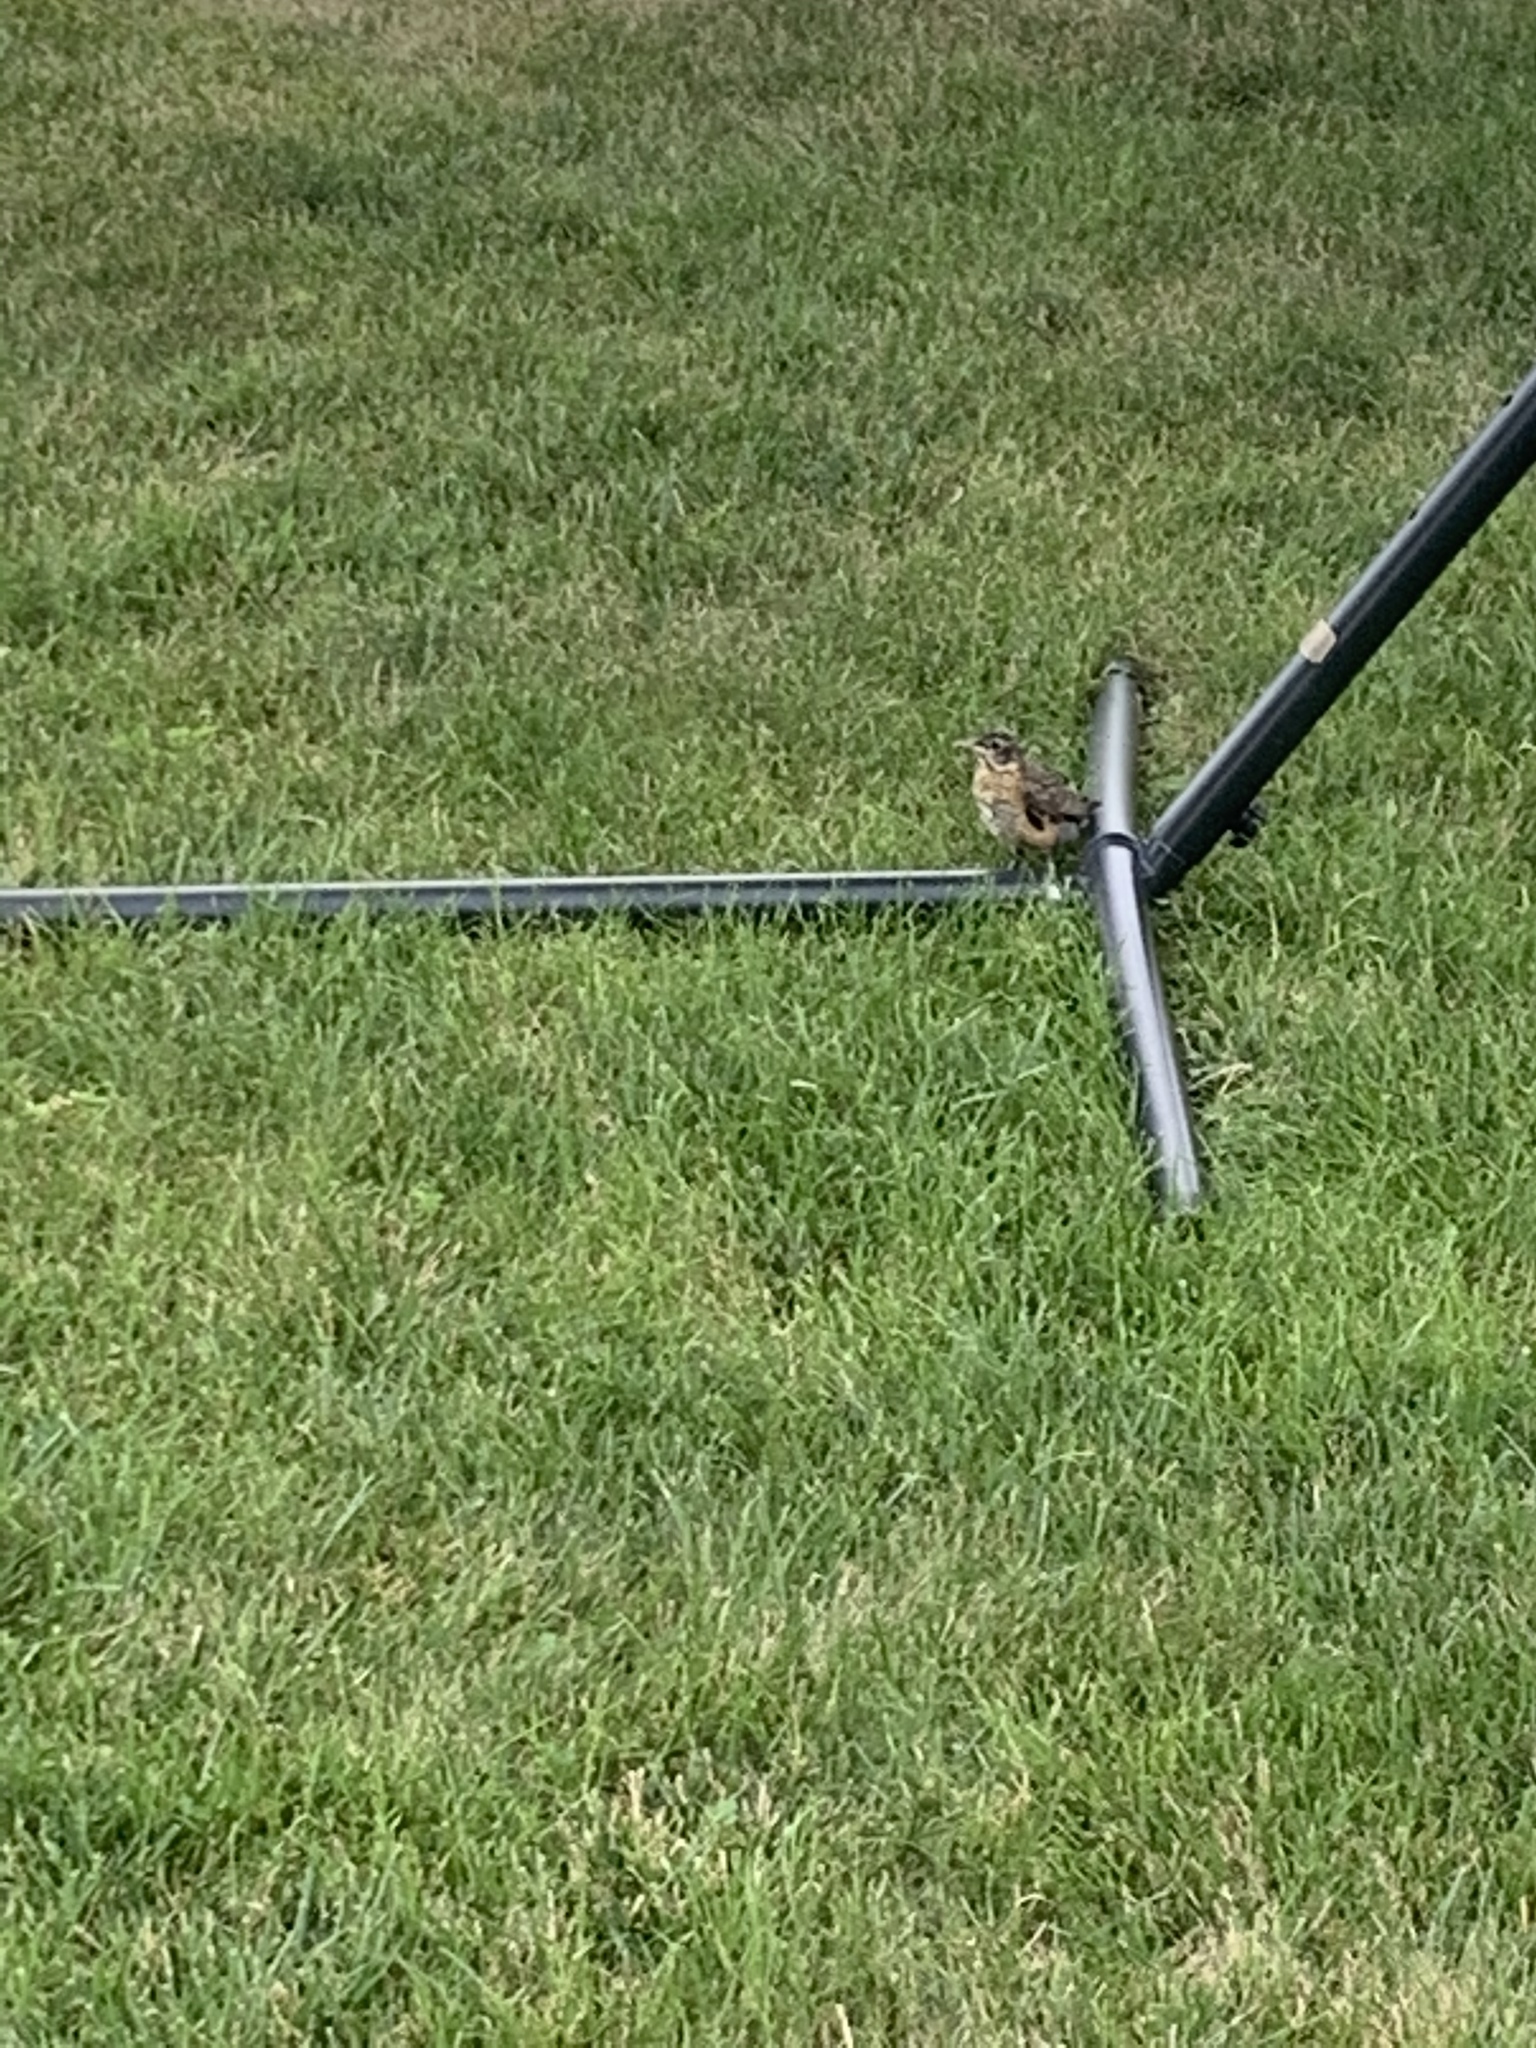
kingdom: Animalia
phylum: Chordata
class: Aves
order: Passeriformes
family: Turdidae
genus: Turdus
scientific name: Turdus migratorius
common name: American robin
